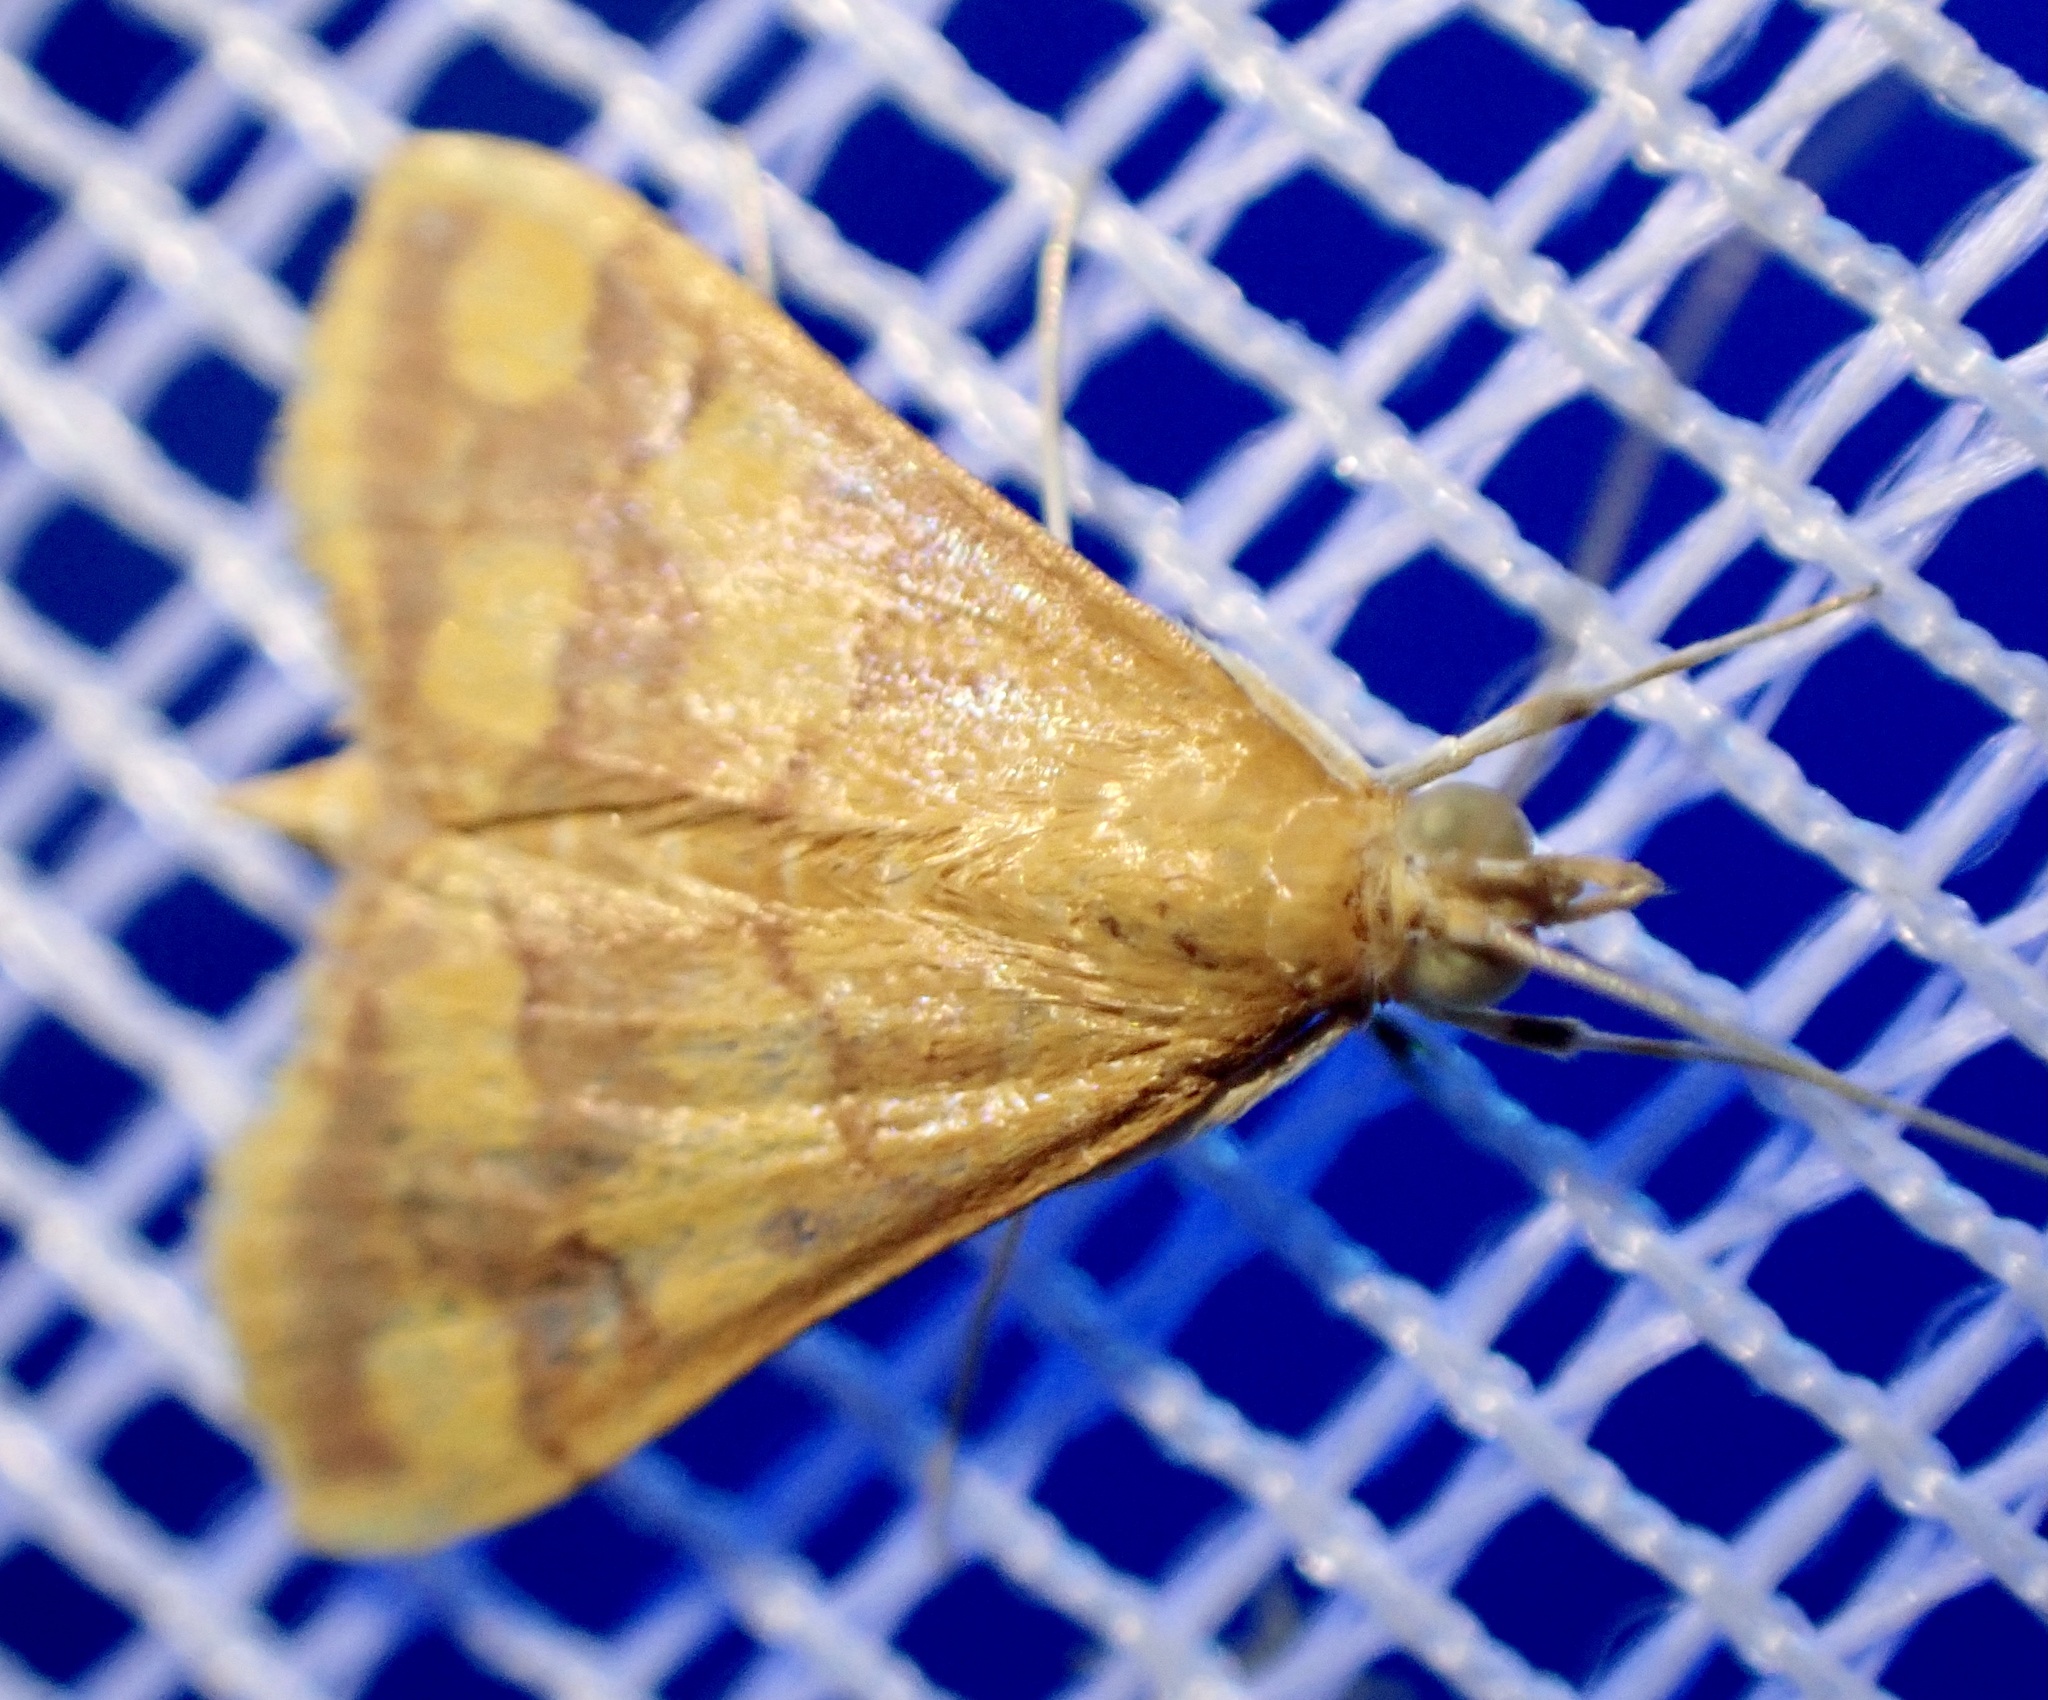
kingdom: Animalia
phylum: Arthropoda
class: Insecta
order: Lepidoptera
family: Crambidae
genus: Pyrausta
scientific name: Pyrausta phoenicealis
